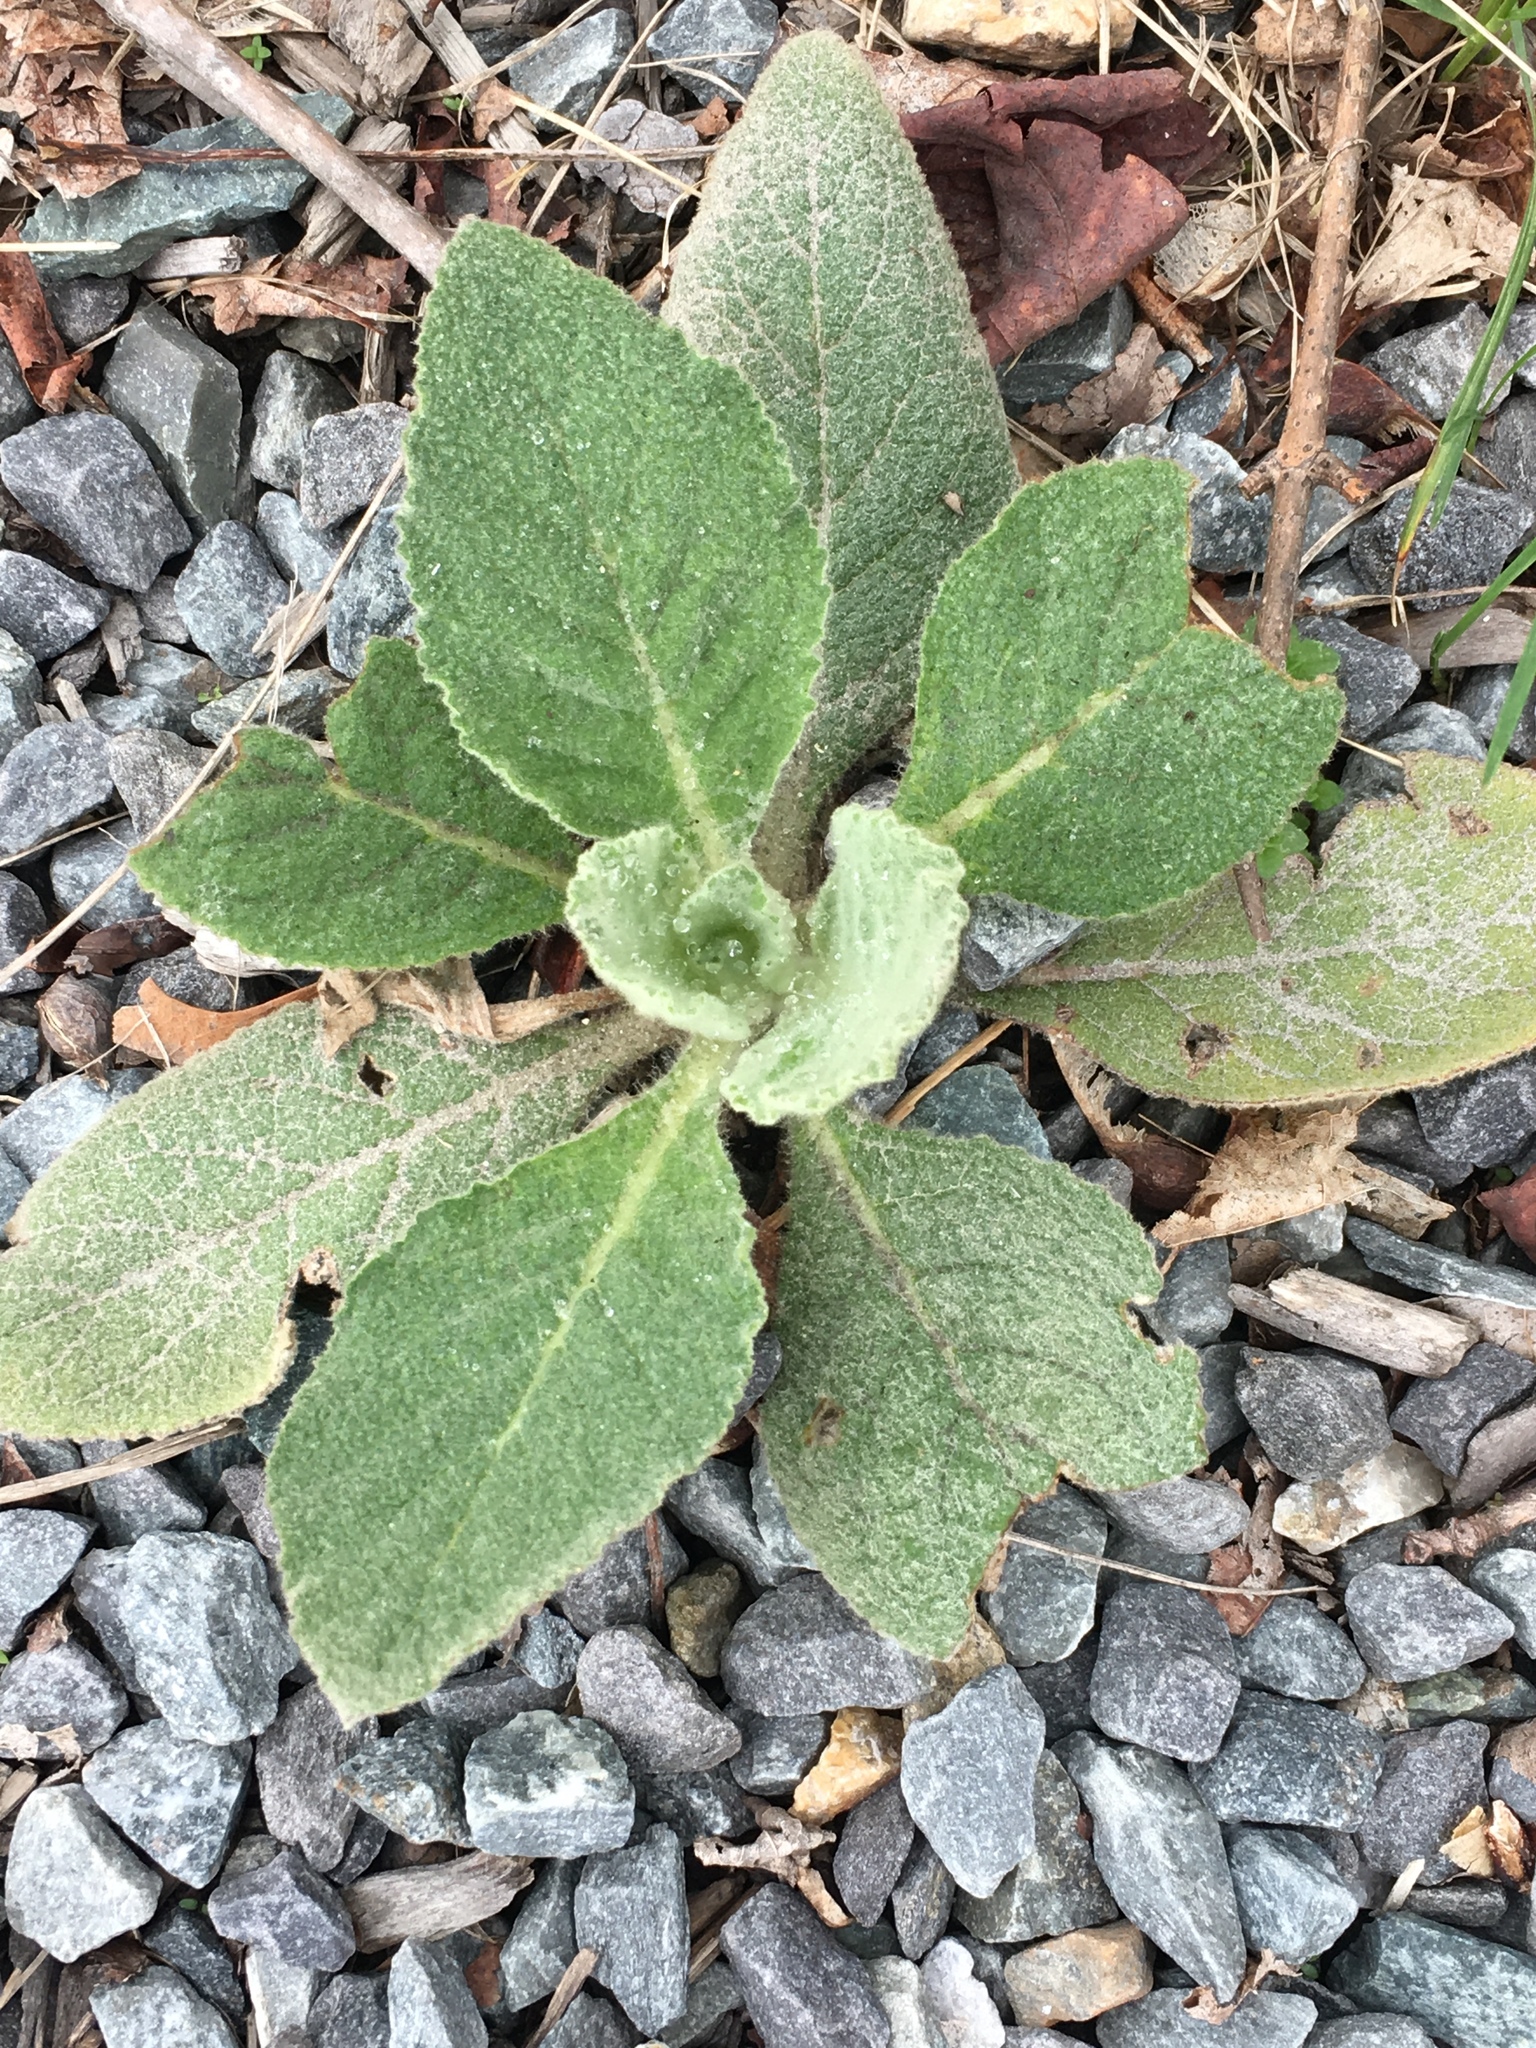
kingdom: Plantae
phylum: Tracheophyta
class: Magnoliopsida
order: Lamiales
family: Scrophulariaceae
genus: Verbascum
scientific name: Verbascum thapsus
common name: Common mullein
